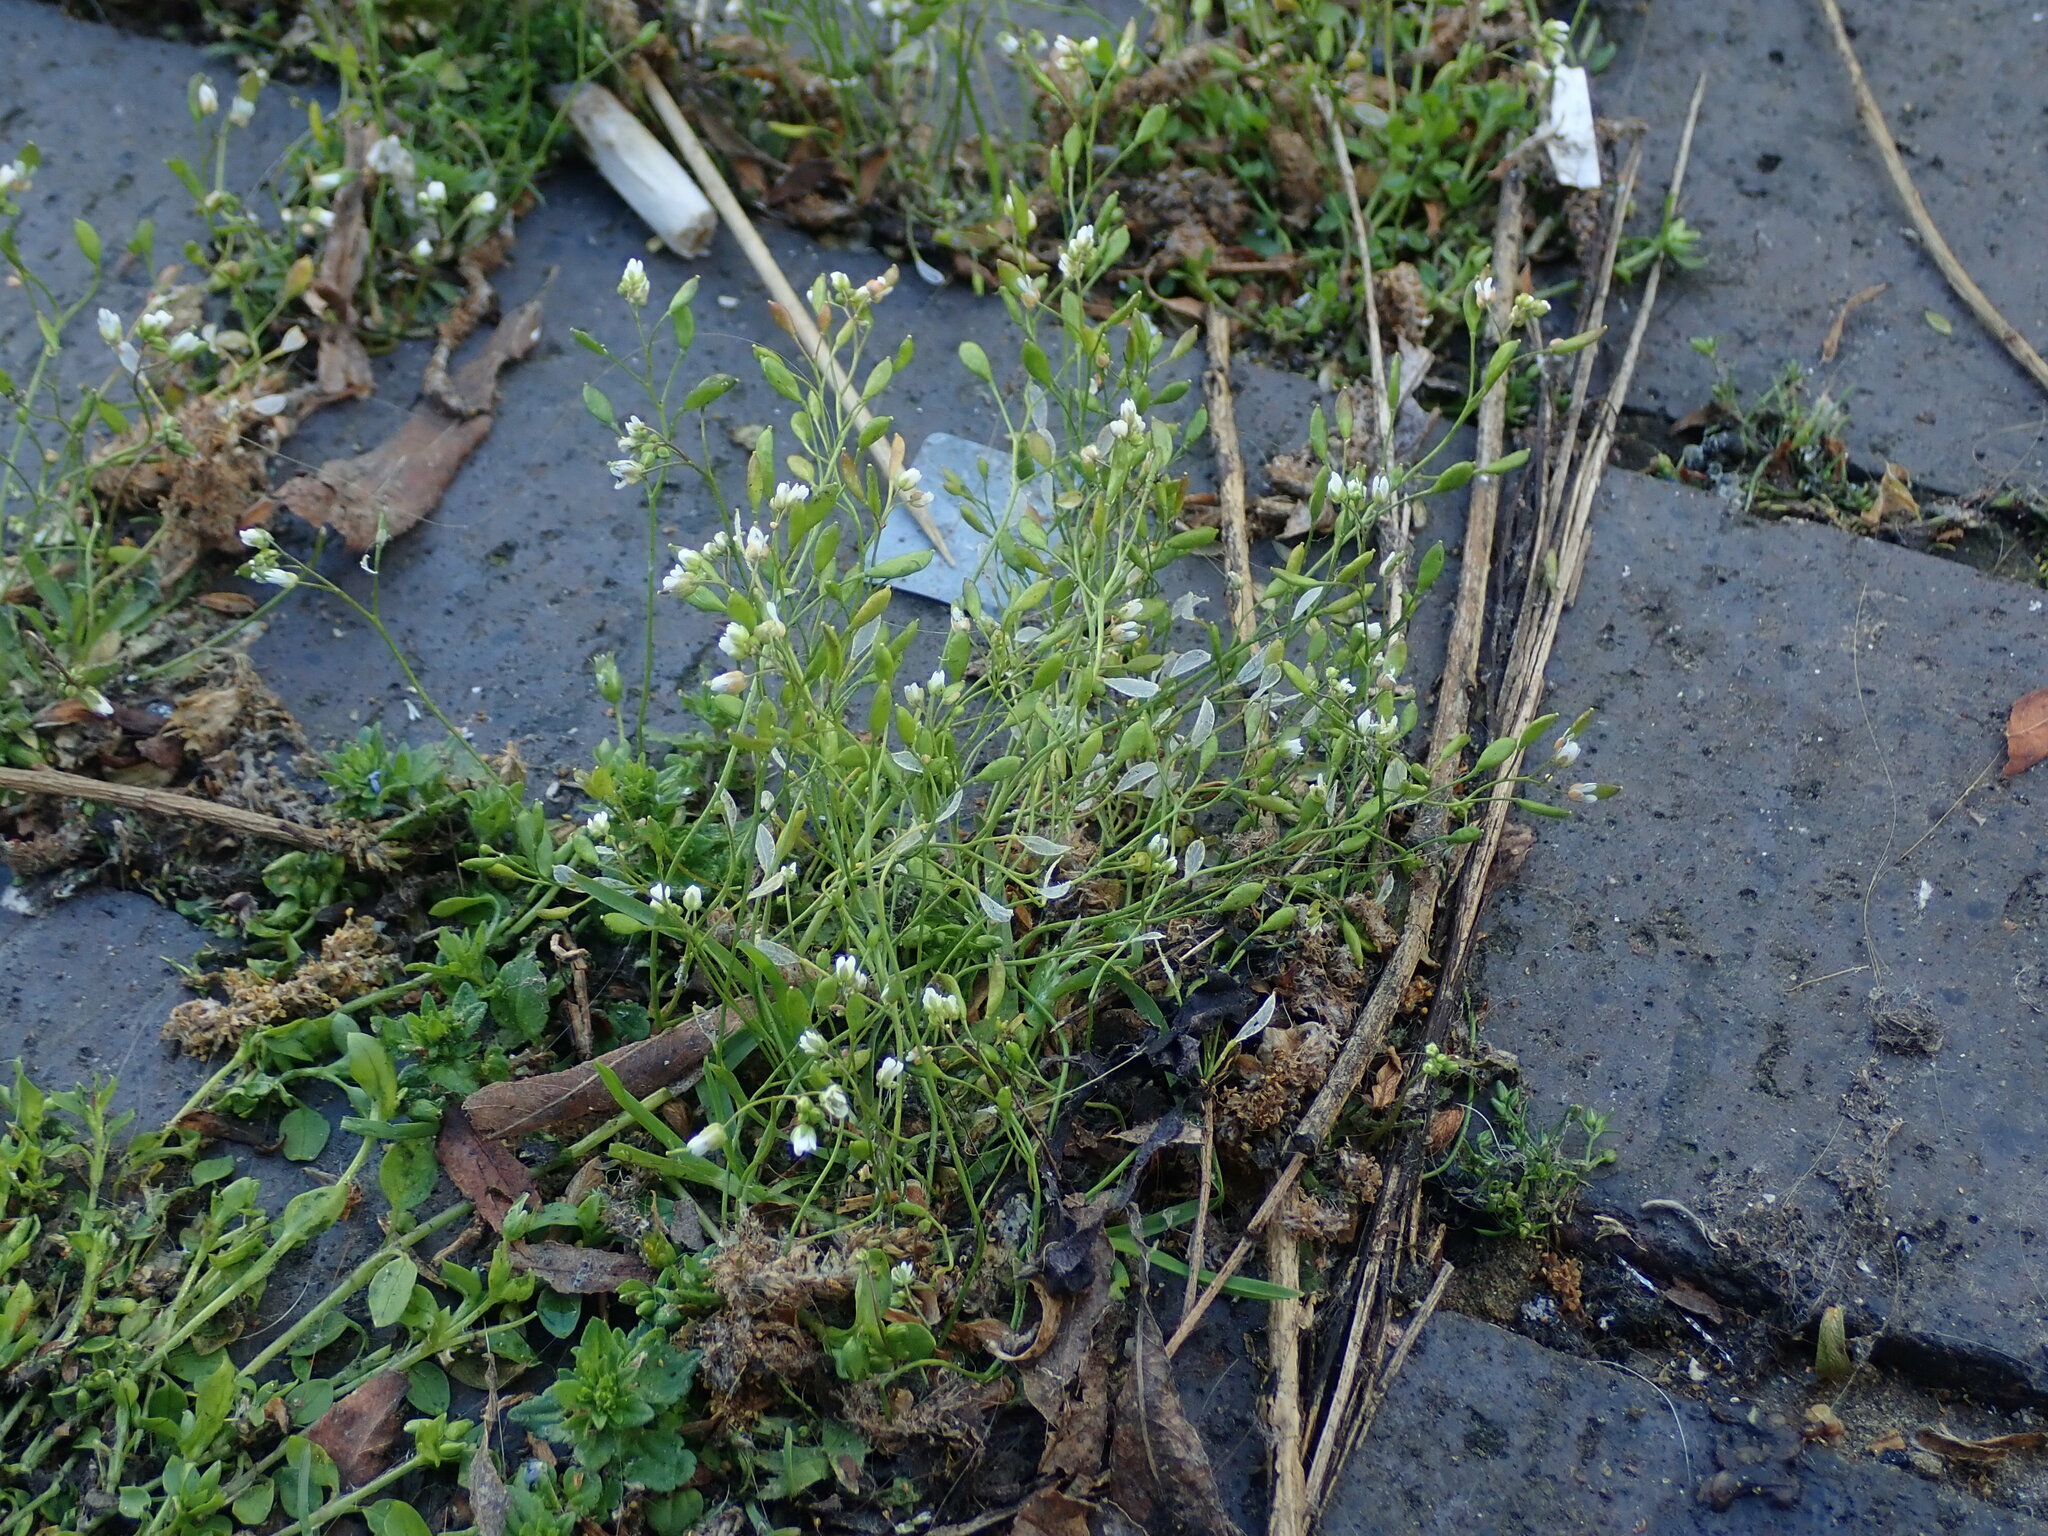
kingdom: Plantae
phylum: Tracheophyta
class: Magnoliopsida
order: Brassicales
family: Brassicaceae
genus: Draba
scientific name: Draba verna
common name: Spring draba
